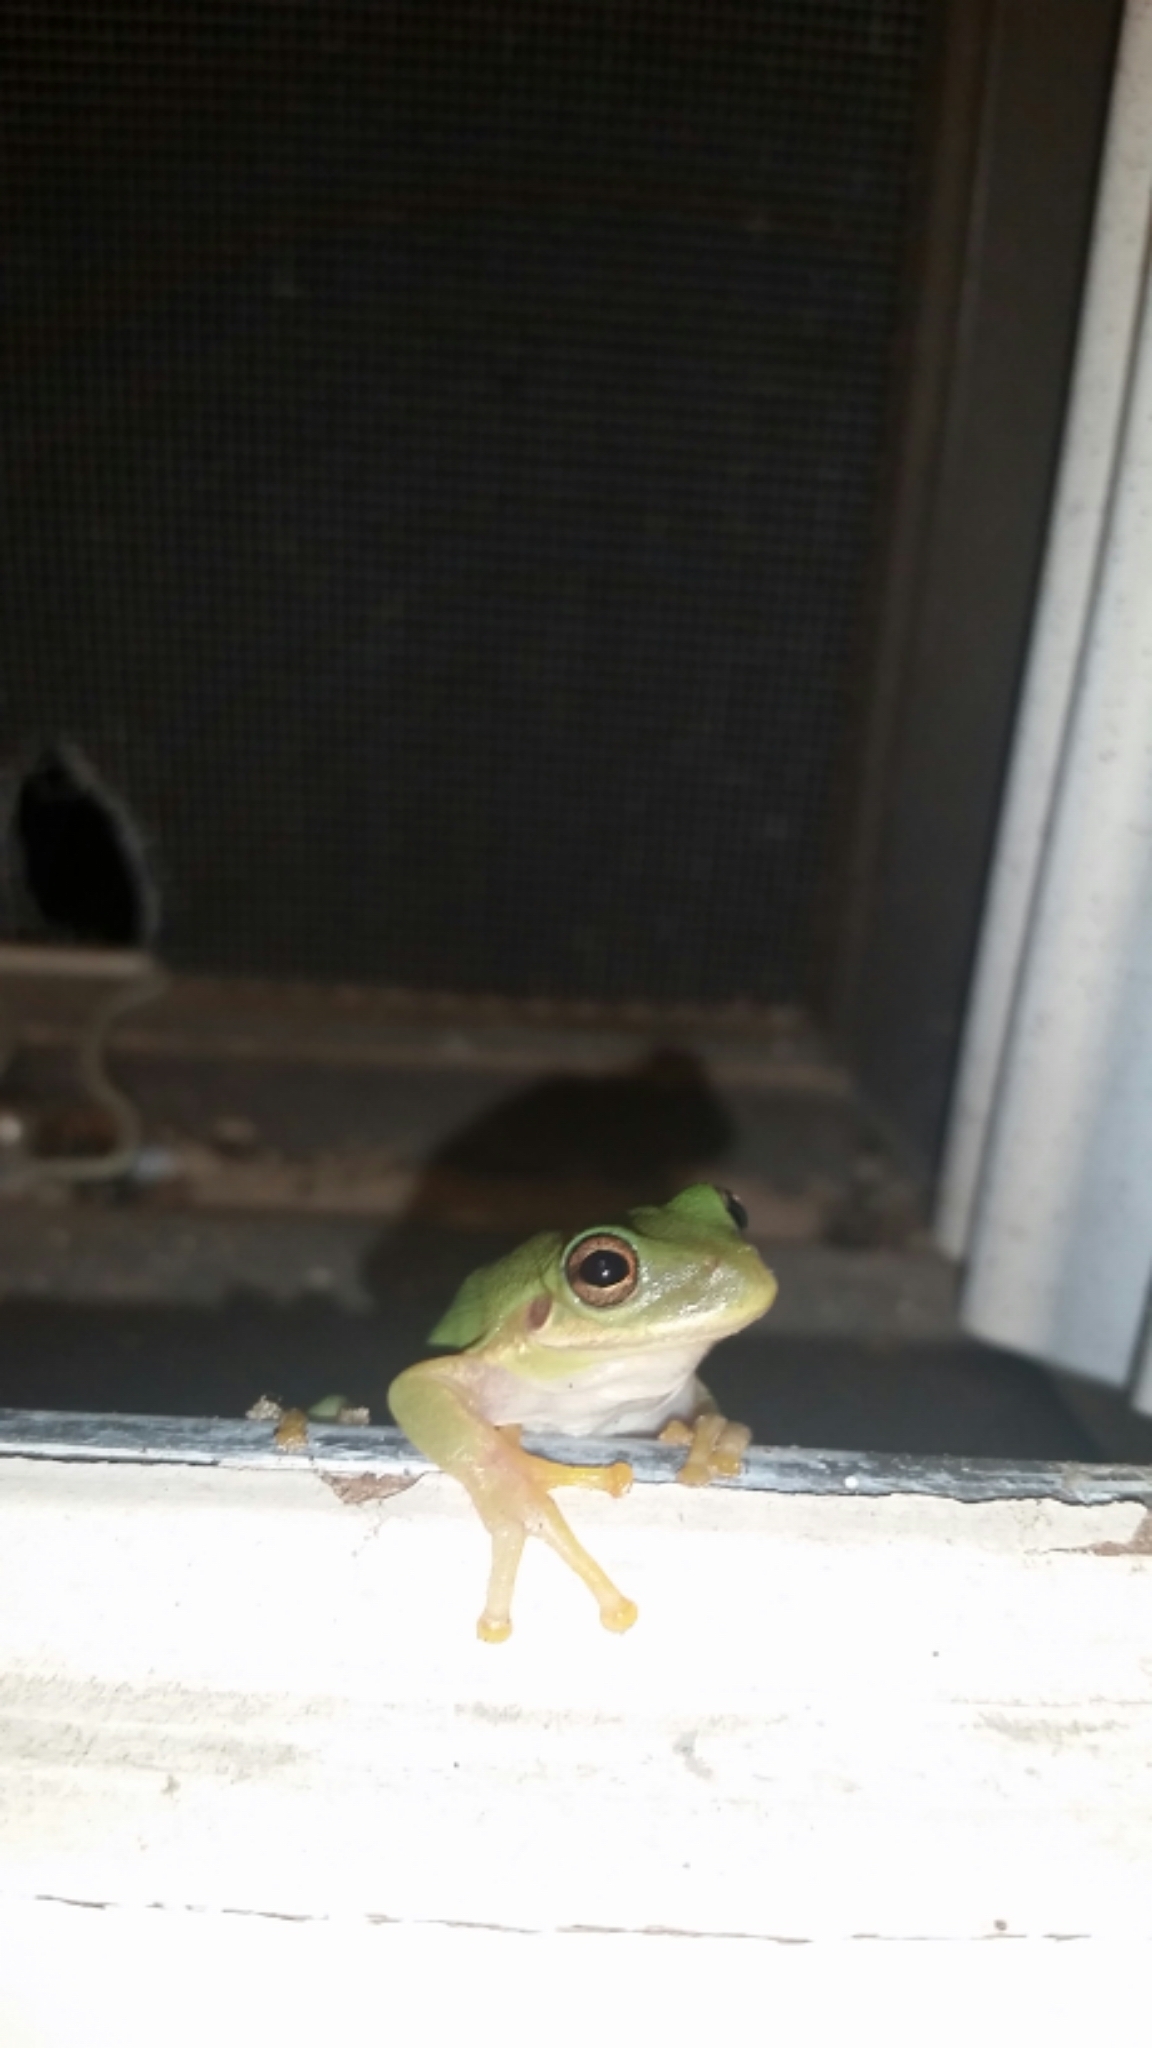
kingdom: Animalia
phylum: Chordata
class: Amphibia
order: Anura
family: Hylidae
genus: Dryophytes
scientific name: Dryophytes squirellus
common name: Squirrel treefrog
